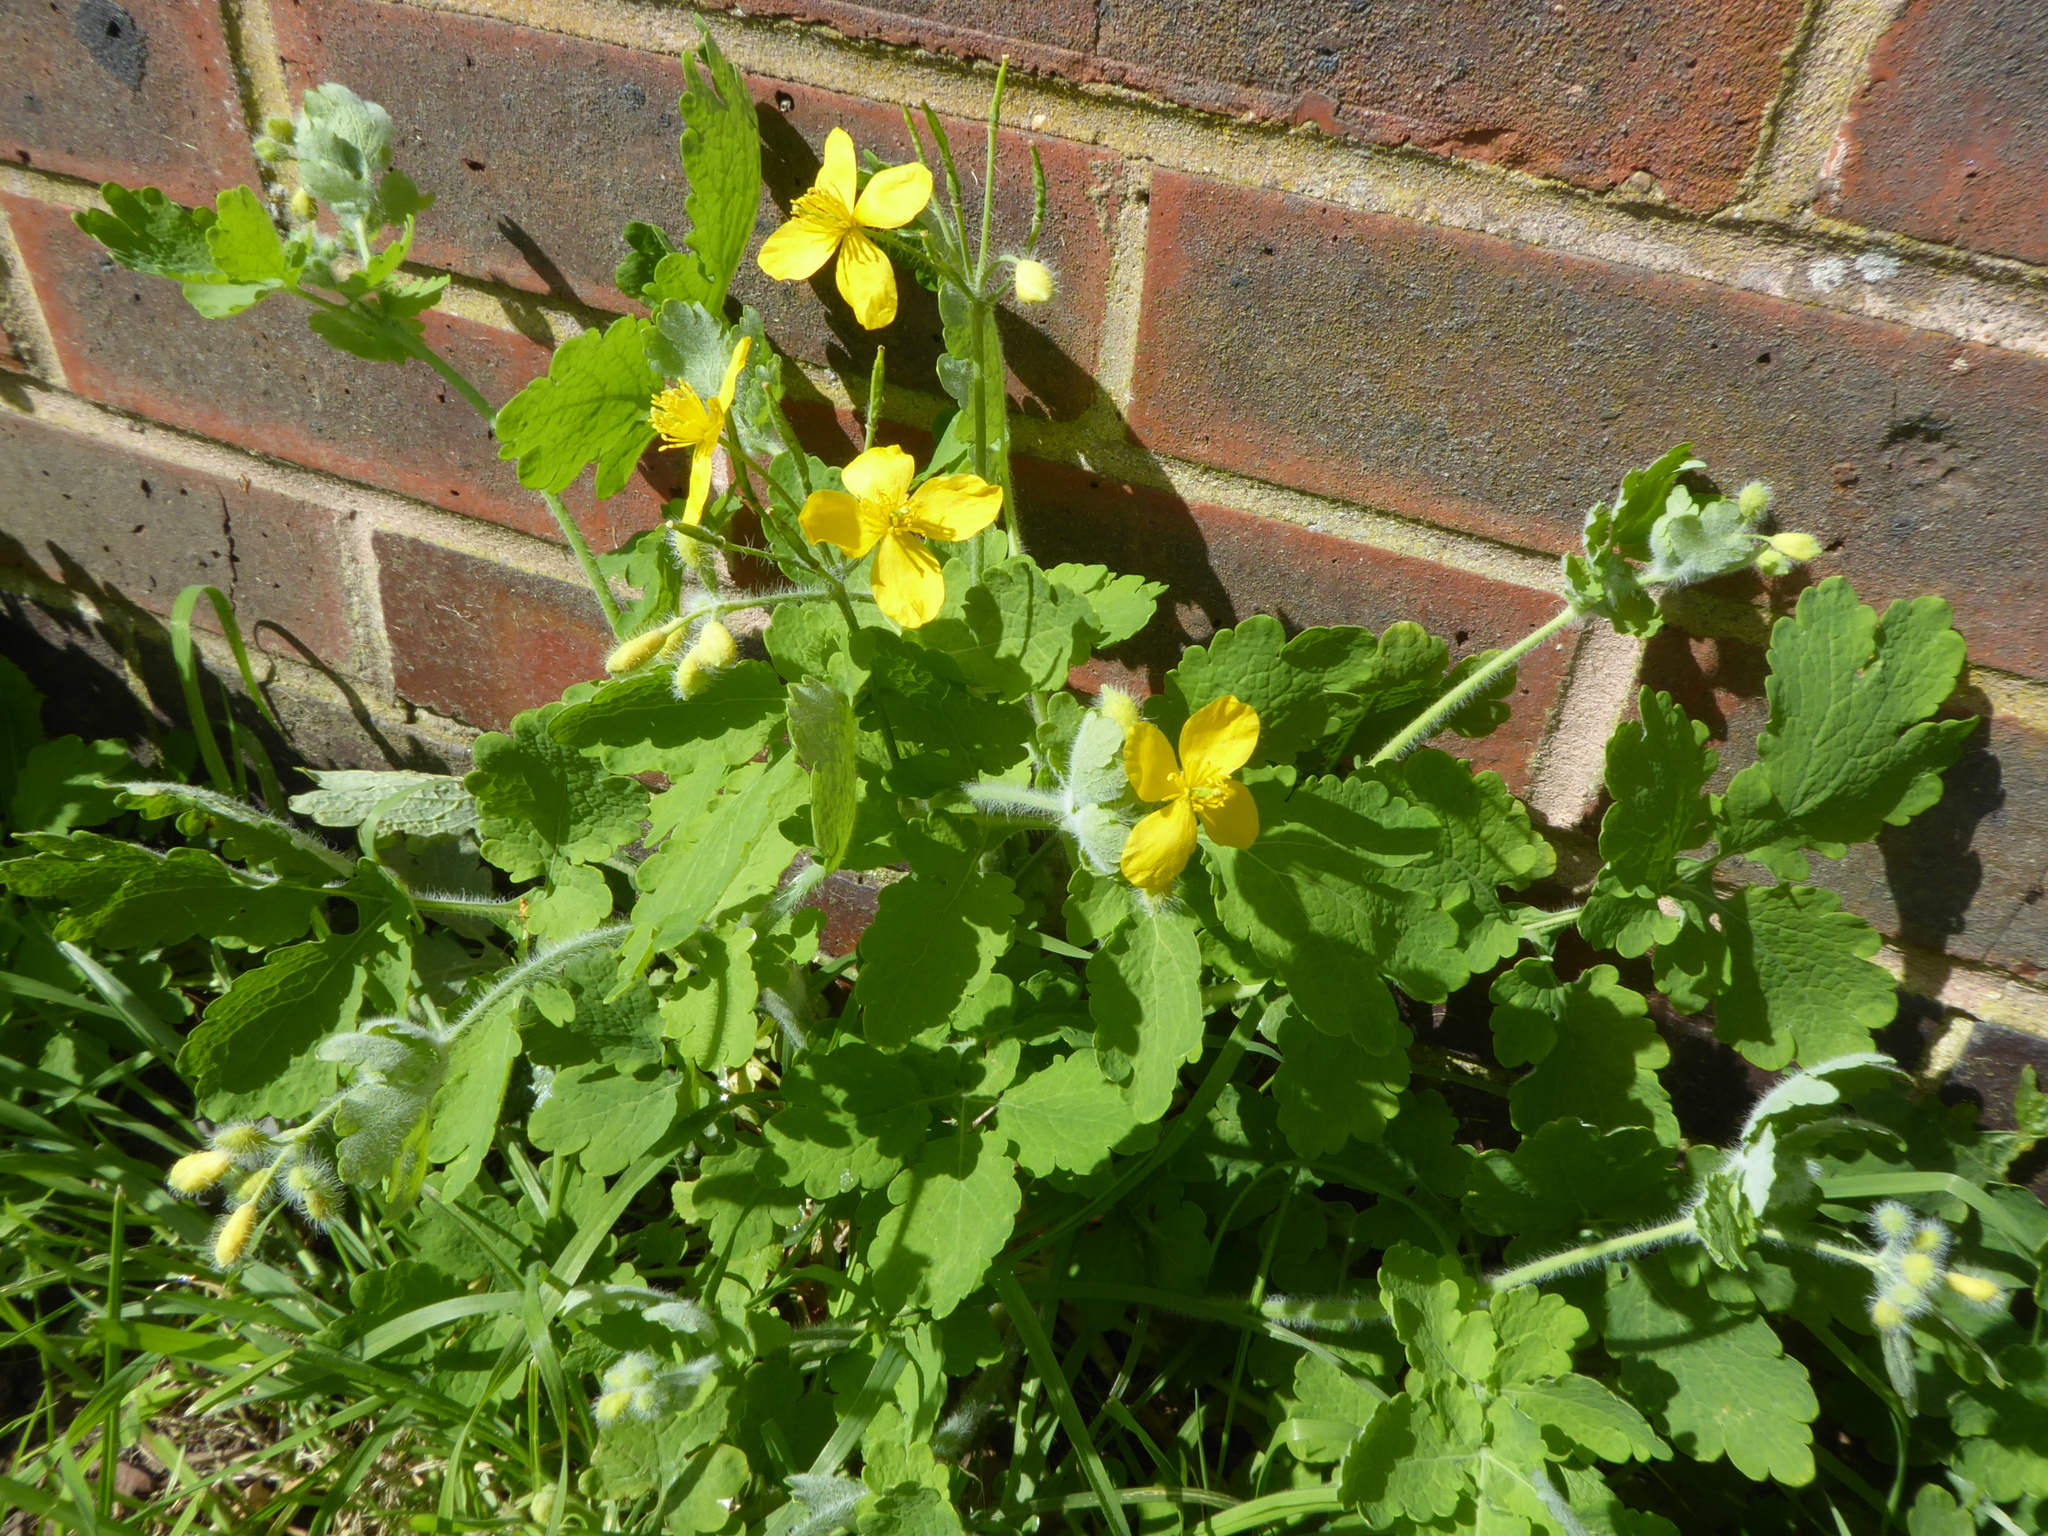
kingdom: Plantae
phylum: Tracheophyta
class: Magnoliopsida
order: Ranunculales
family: Papaveraceae
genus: Chelidonium
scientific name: Chelidonium majus
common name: Greater celandine
